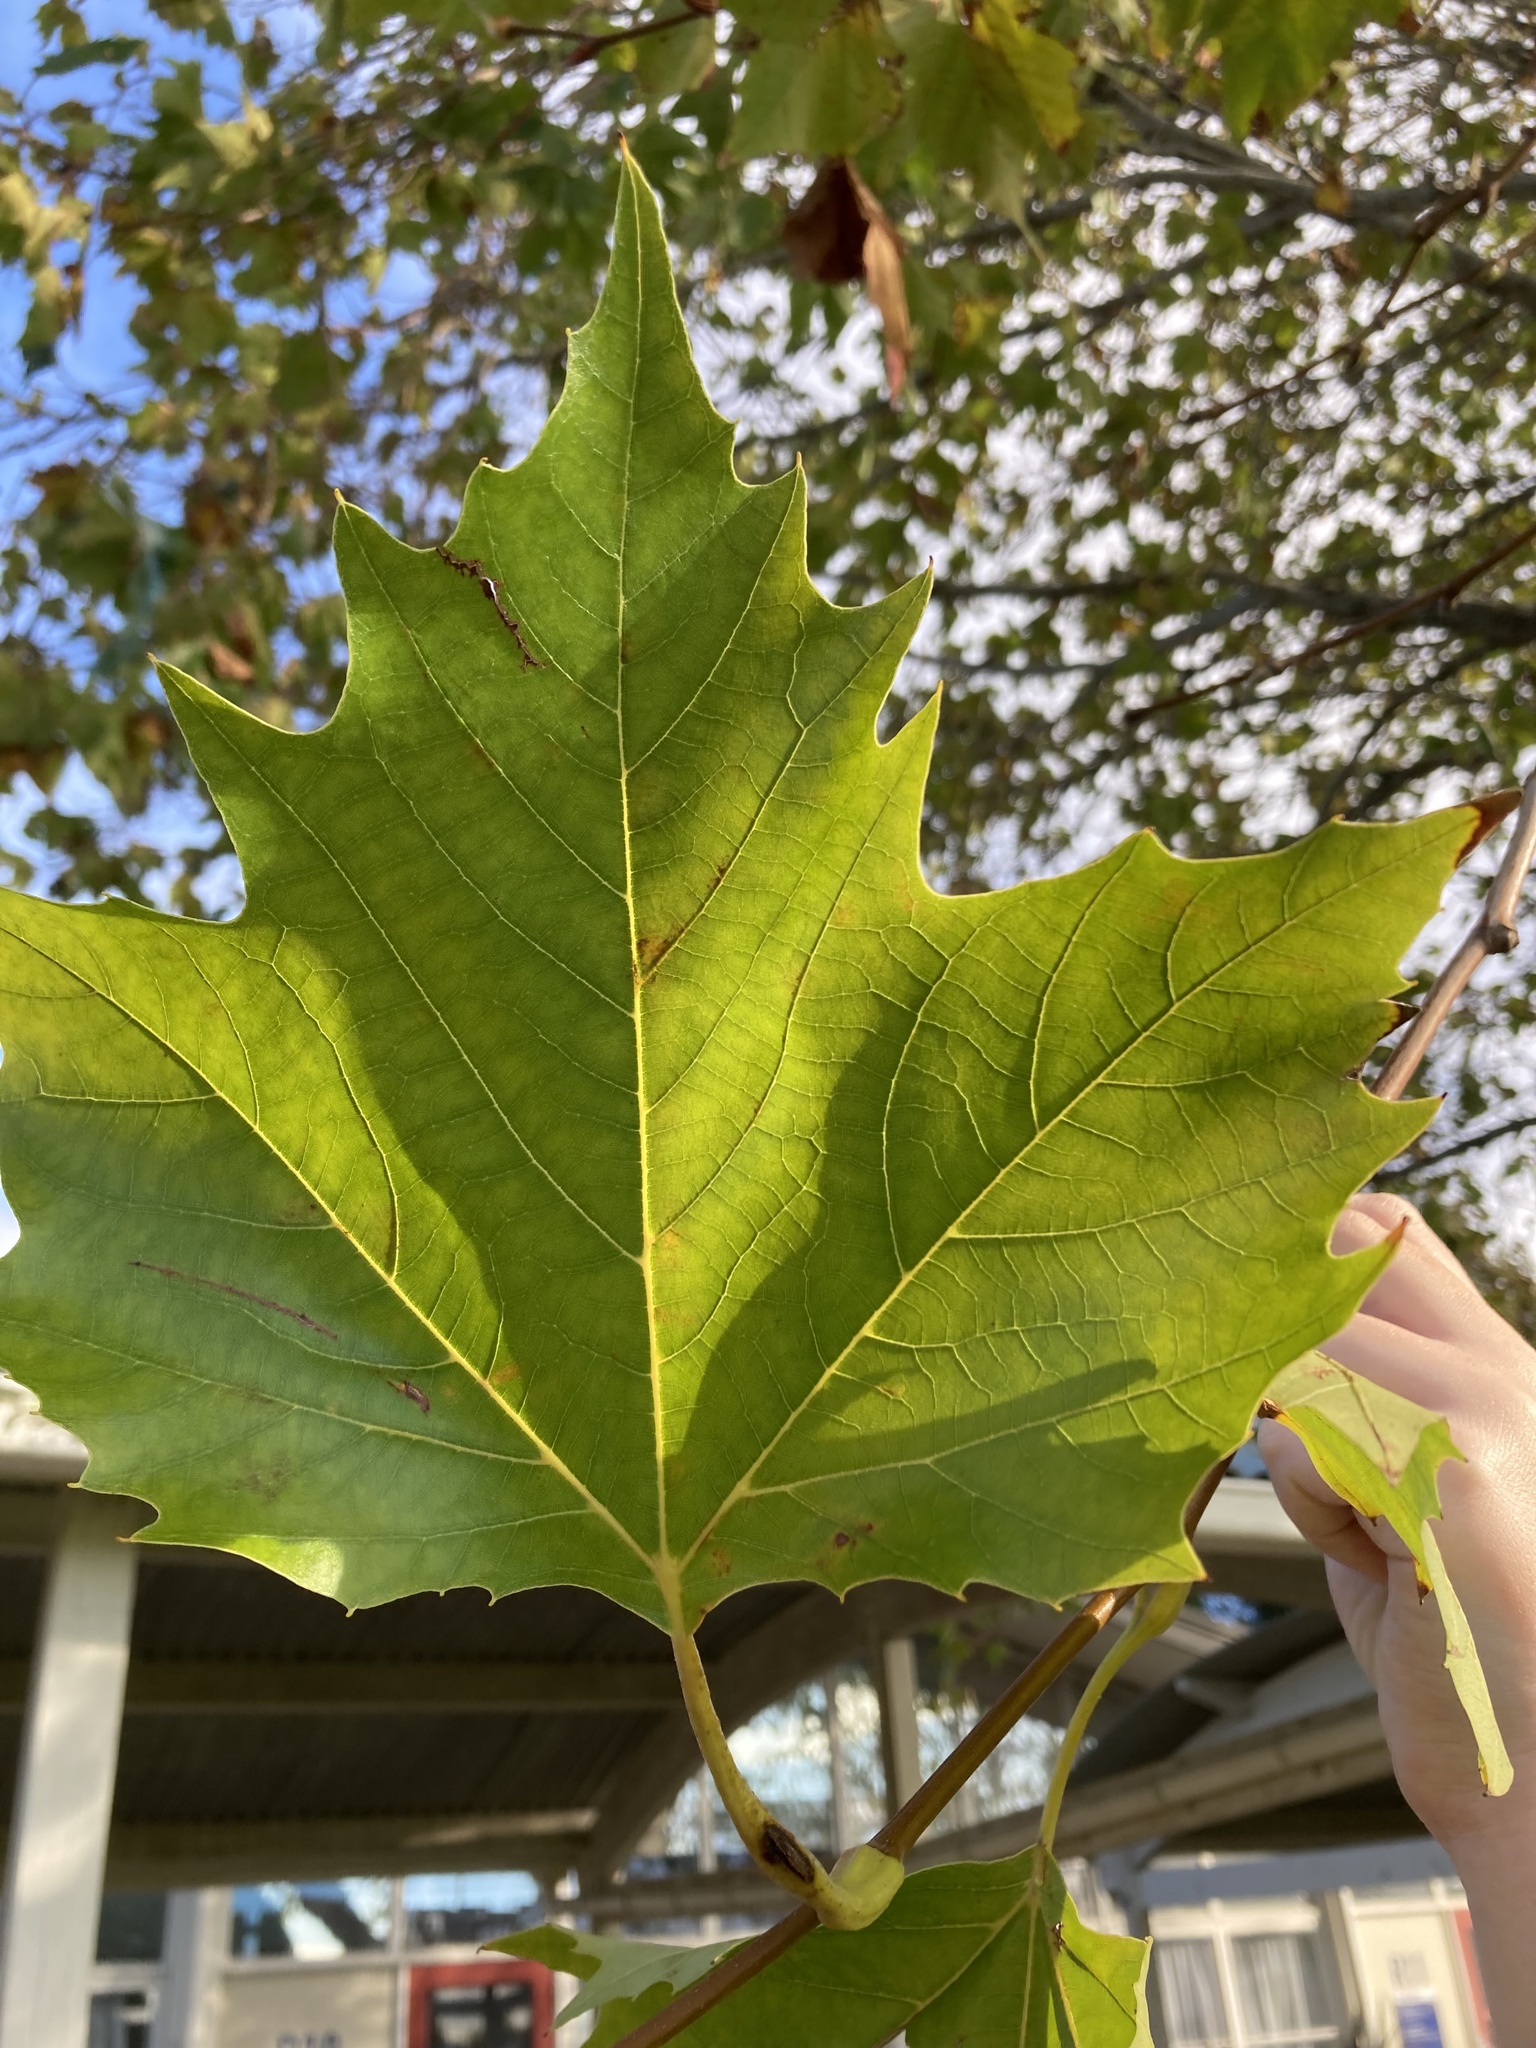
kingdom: Plantae
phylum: Tracheophyta
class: Magnoliopsida
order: Proteales
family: Platanaceae
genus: Platanus
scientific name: Platanus hispanica
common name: London plane
